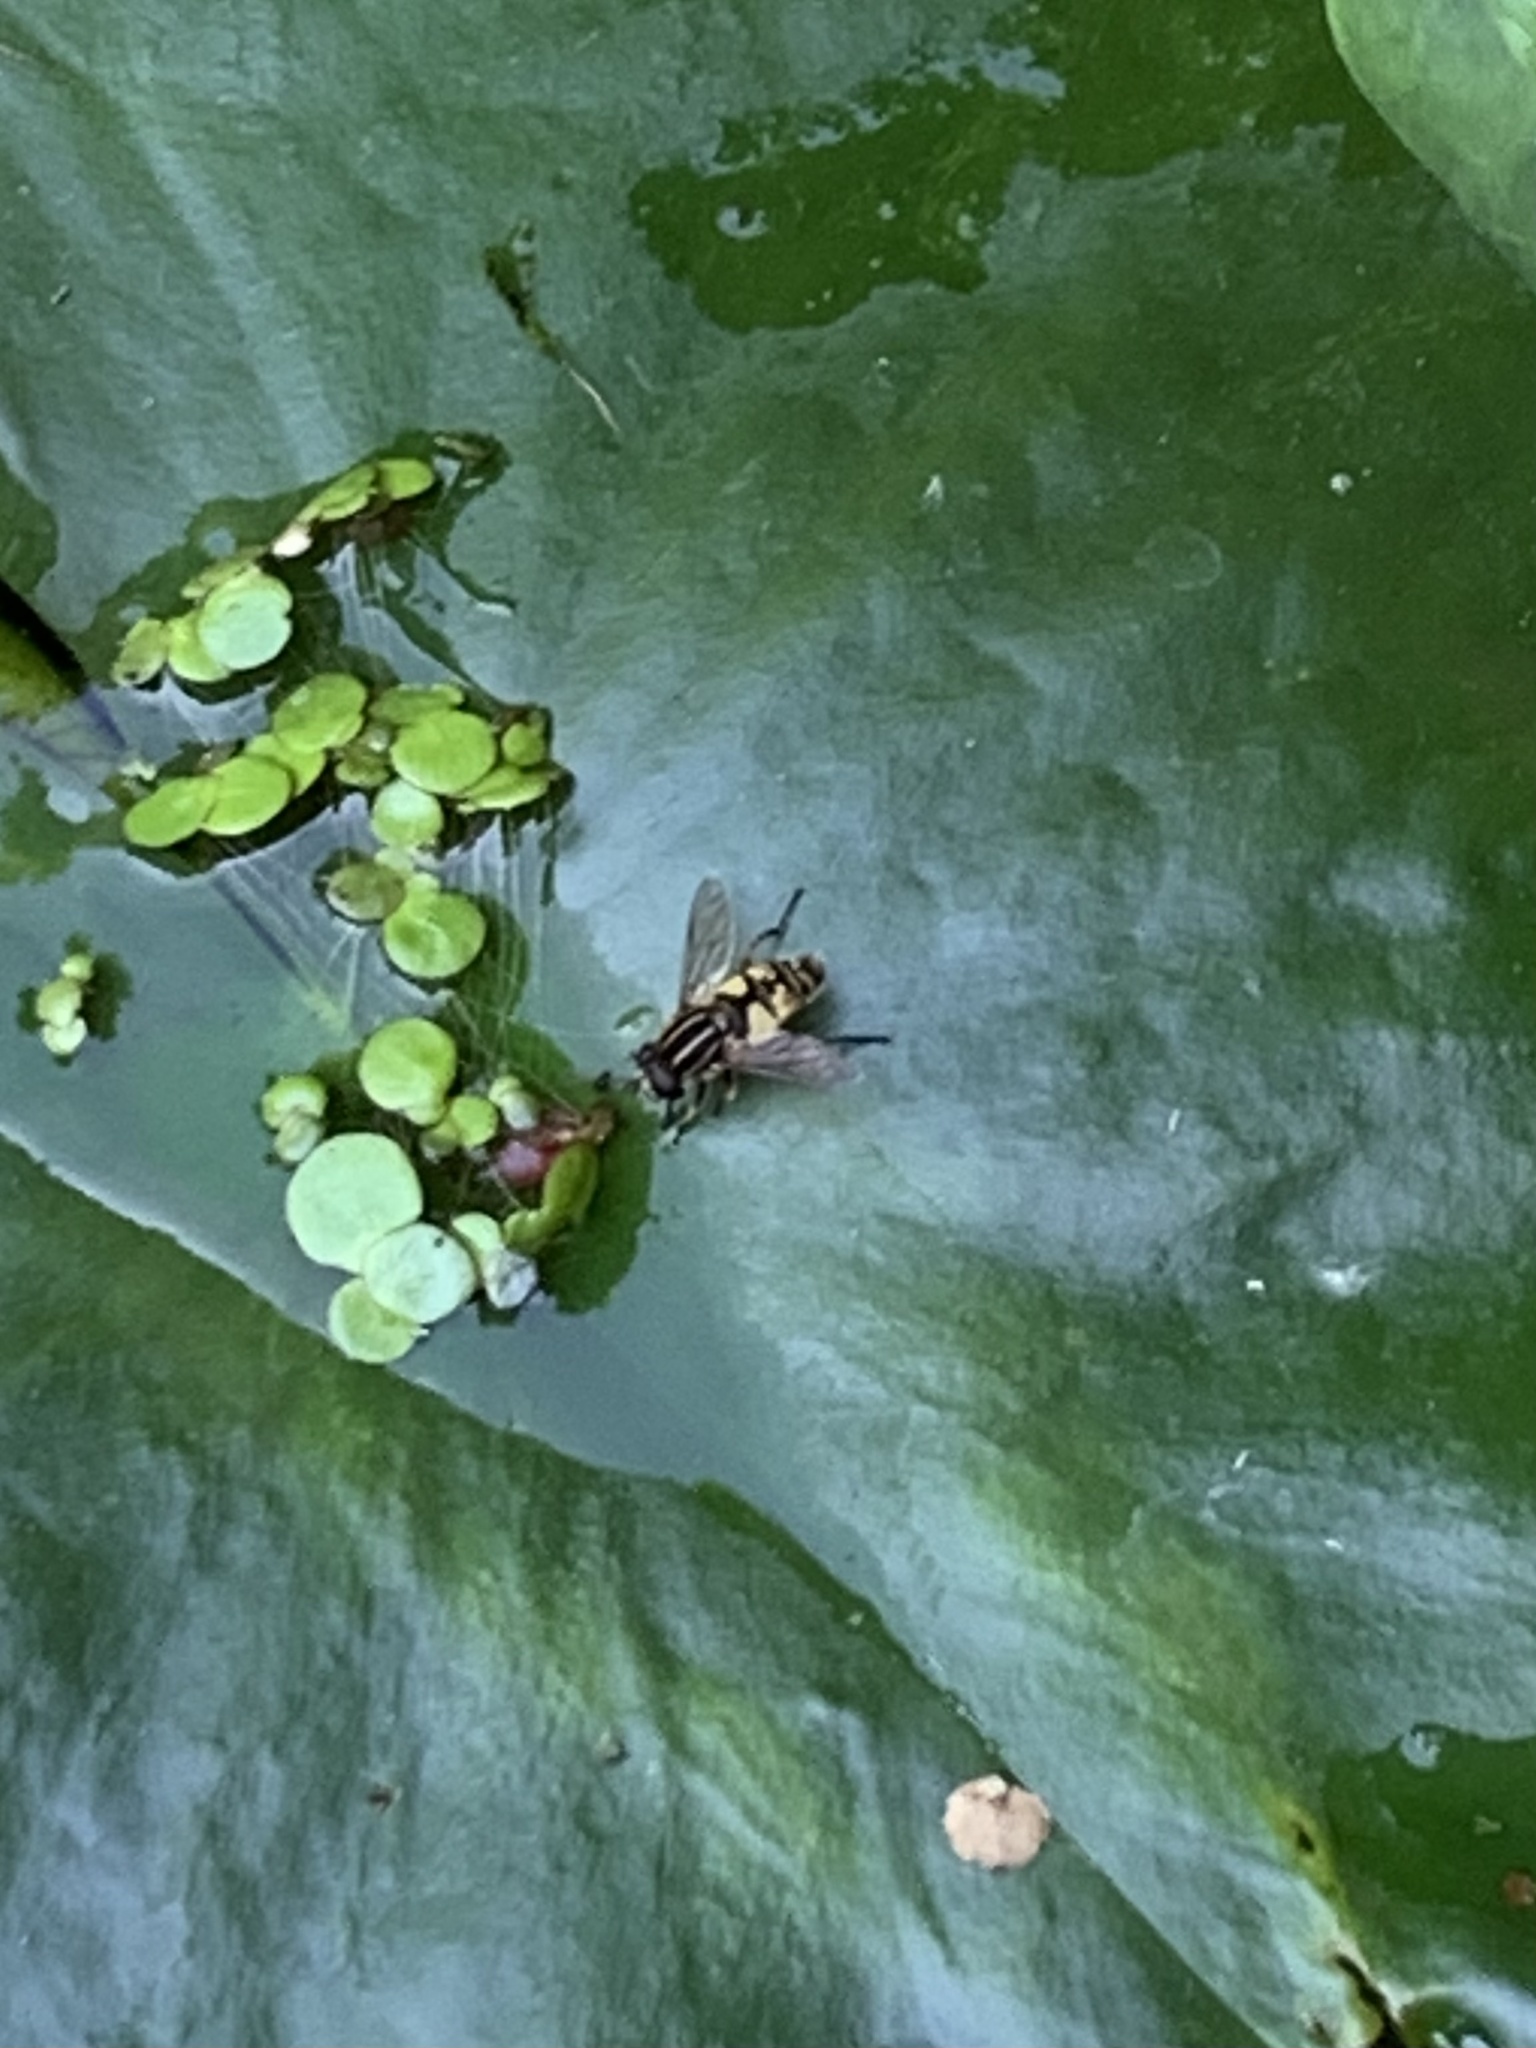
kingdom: Animalia
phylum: Arthropoda
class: Insecta
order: Diptera
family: Syrphidae
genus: Helophilus
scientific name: Helophilus pendulus
